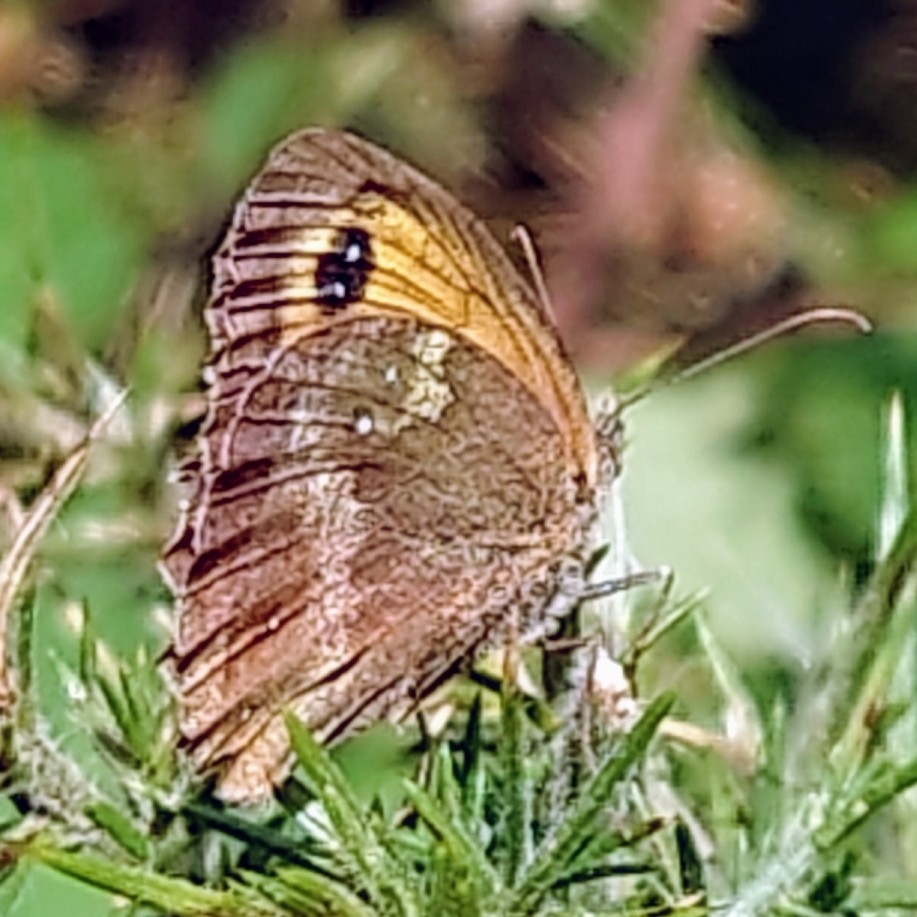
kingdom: Animalia
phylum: Arthropoda
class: Insecta
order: Lepidoptera
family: Nymphalidae
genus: Pyronia
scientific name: Pyronia tithonus
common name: Gatekeeper
